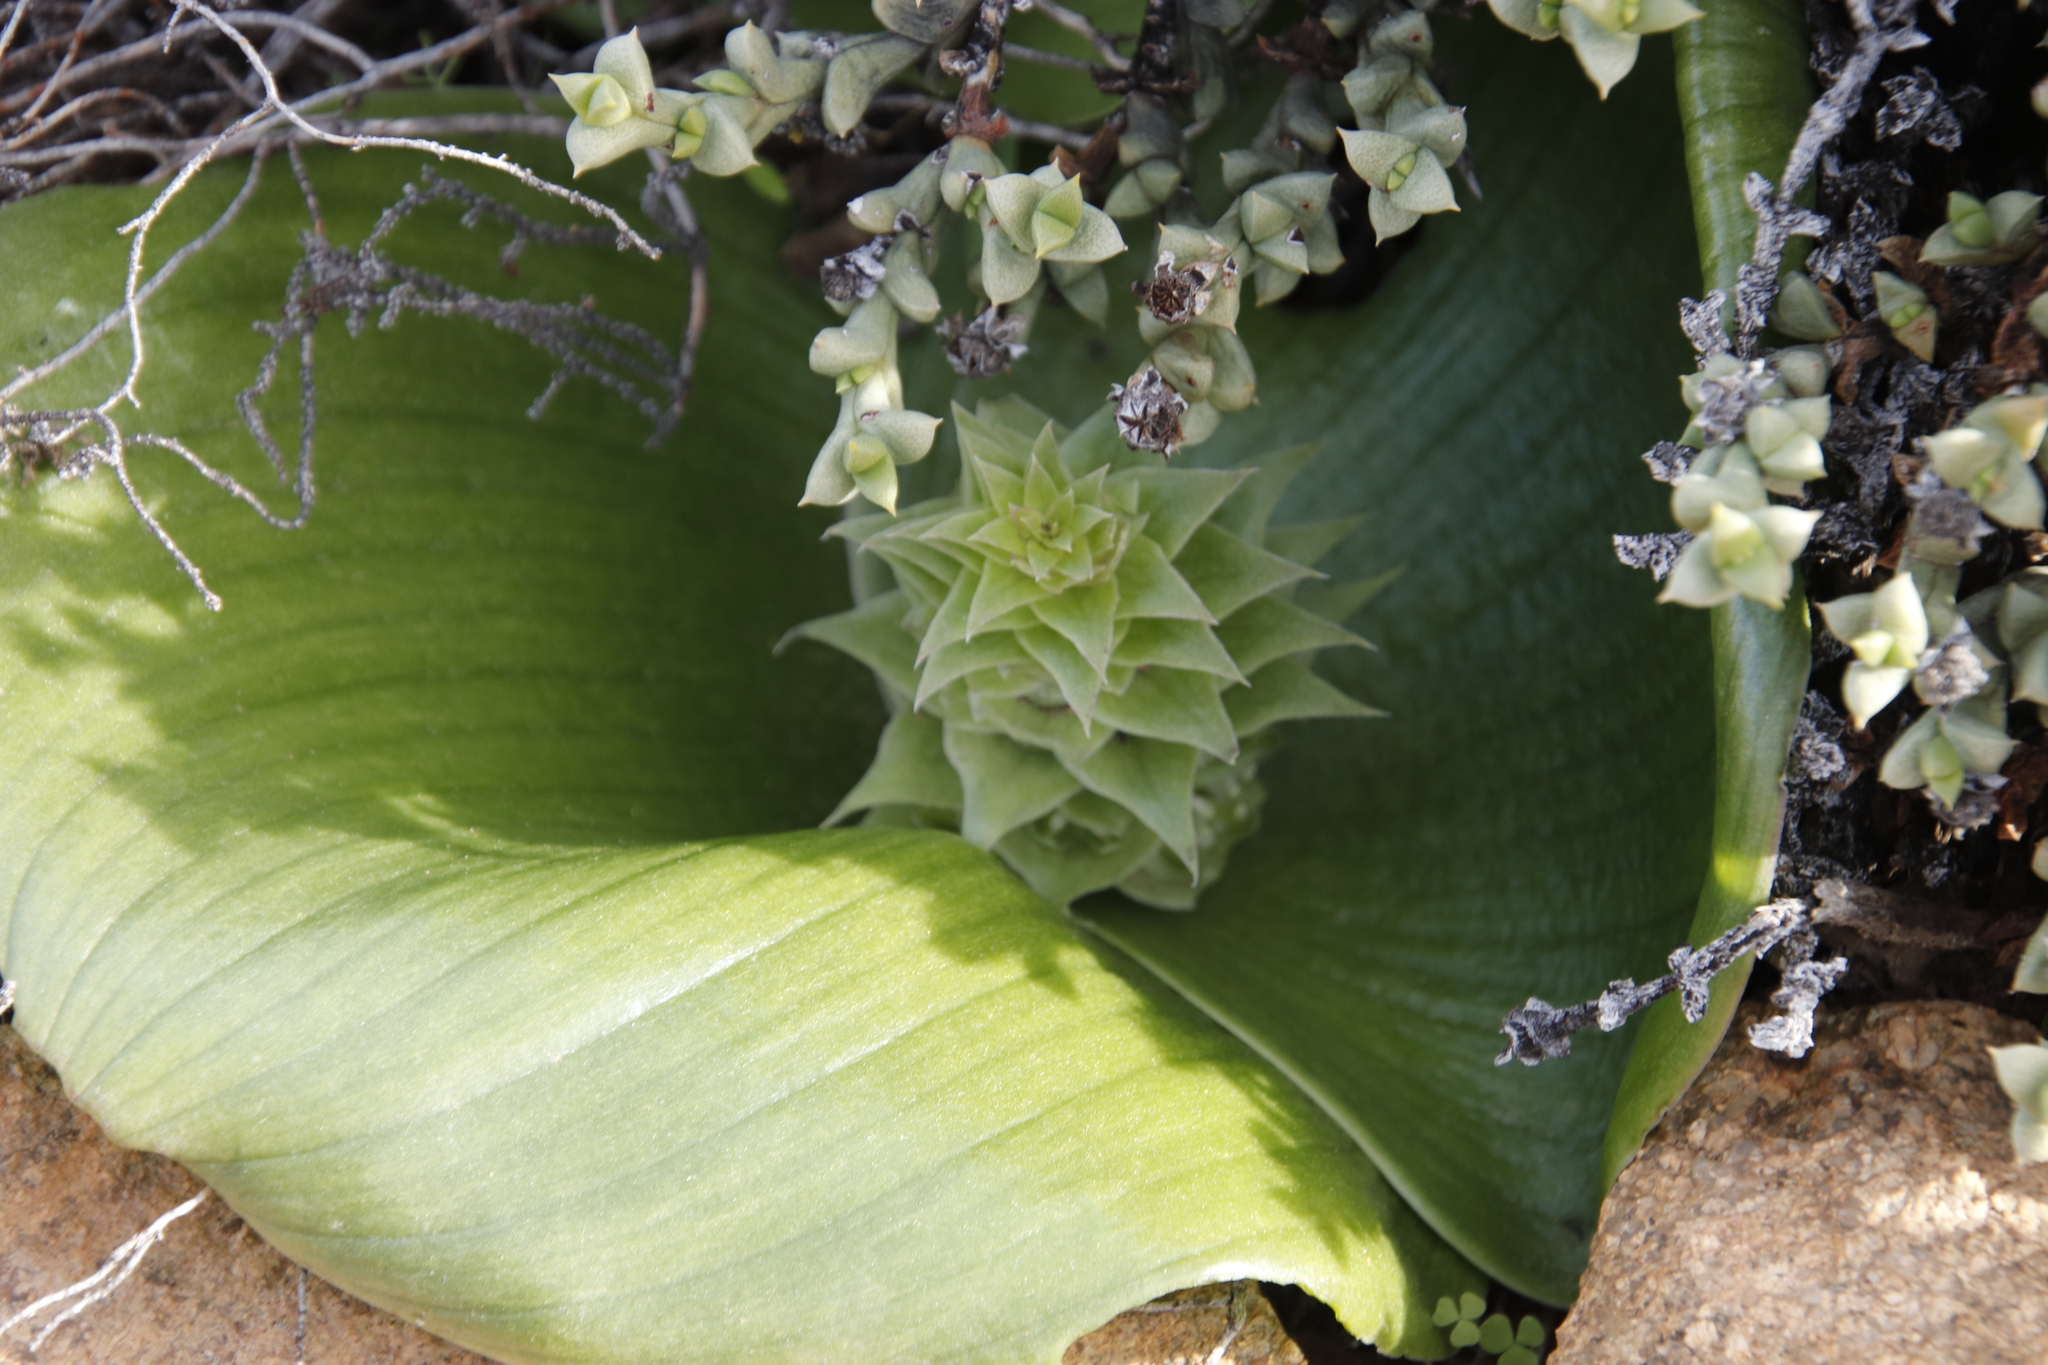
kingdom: Plantae
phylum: Tracheophyta
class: Liliopsida
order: Asparagales
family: Asparagaceae
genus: Massonia
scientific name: Massonia bifolia
